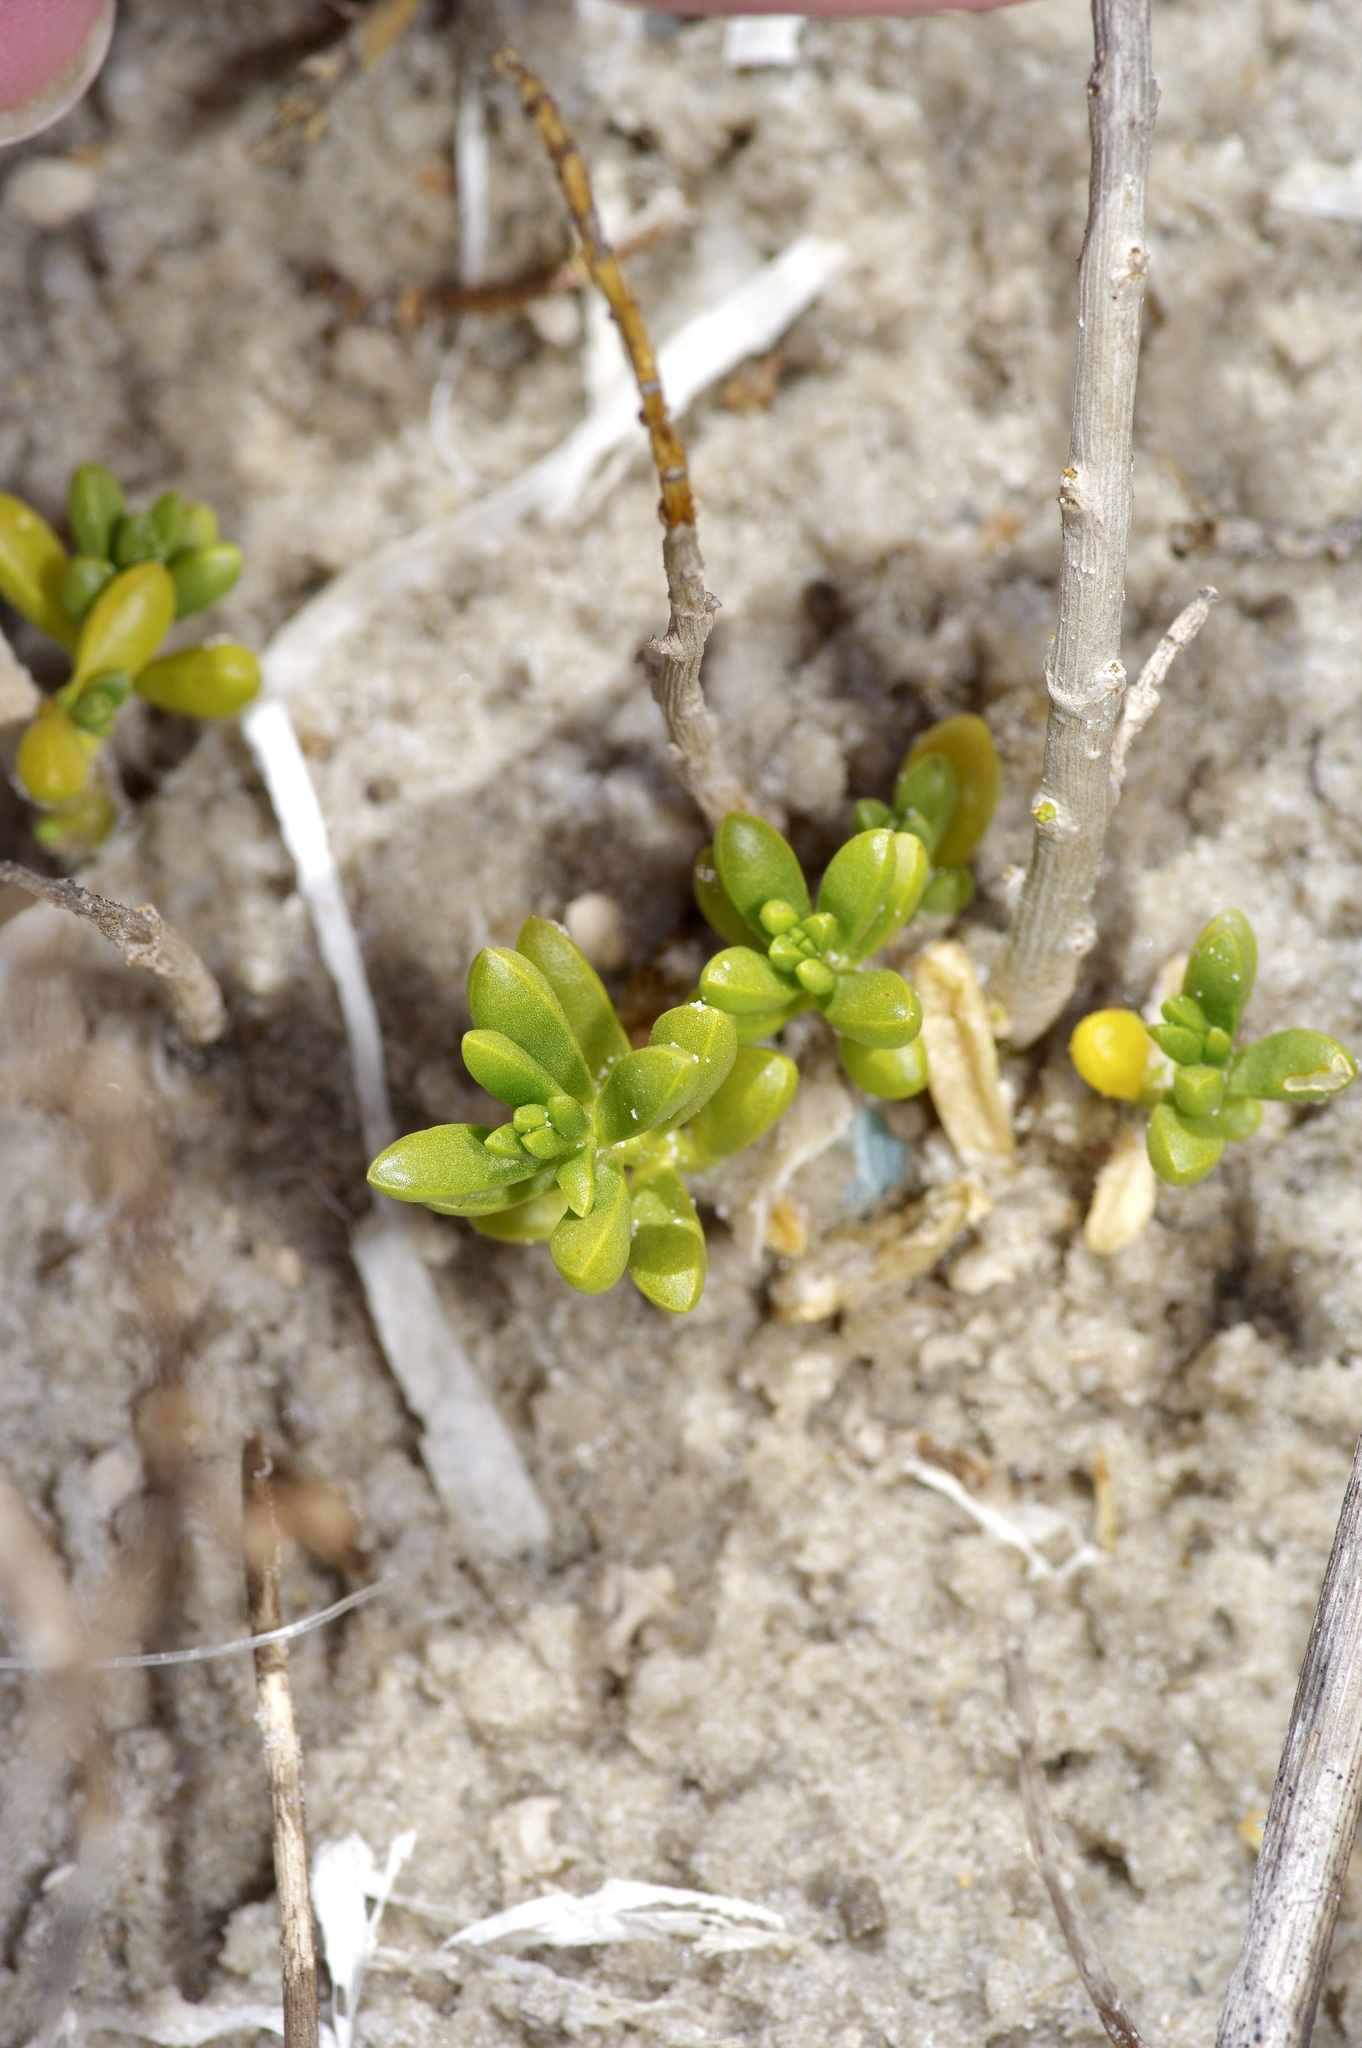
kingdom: Plantae
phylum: Tracheophyta
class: Magnoliopsida
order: Brassicales
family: Bataceae
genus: Batis
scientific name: Batis maritima
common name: Turtleweed
